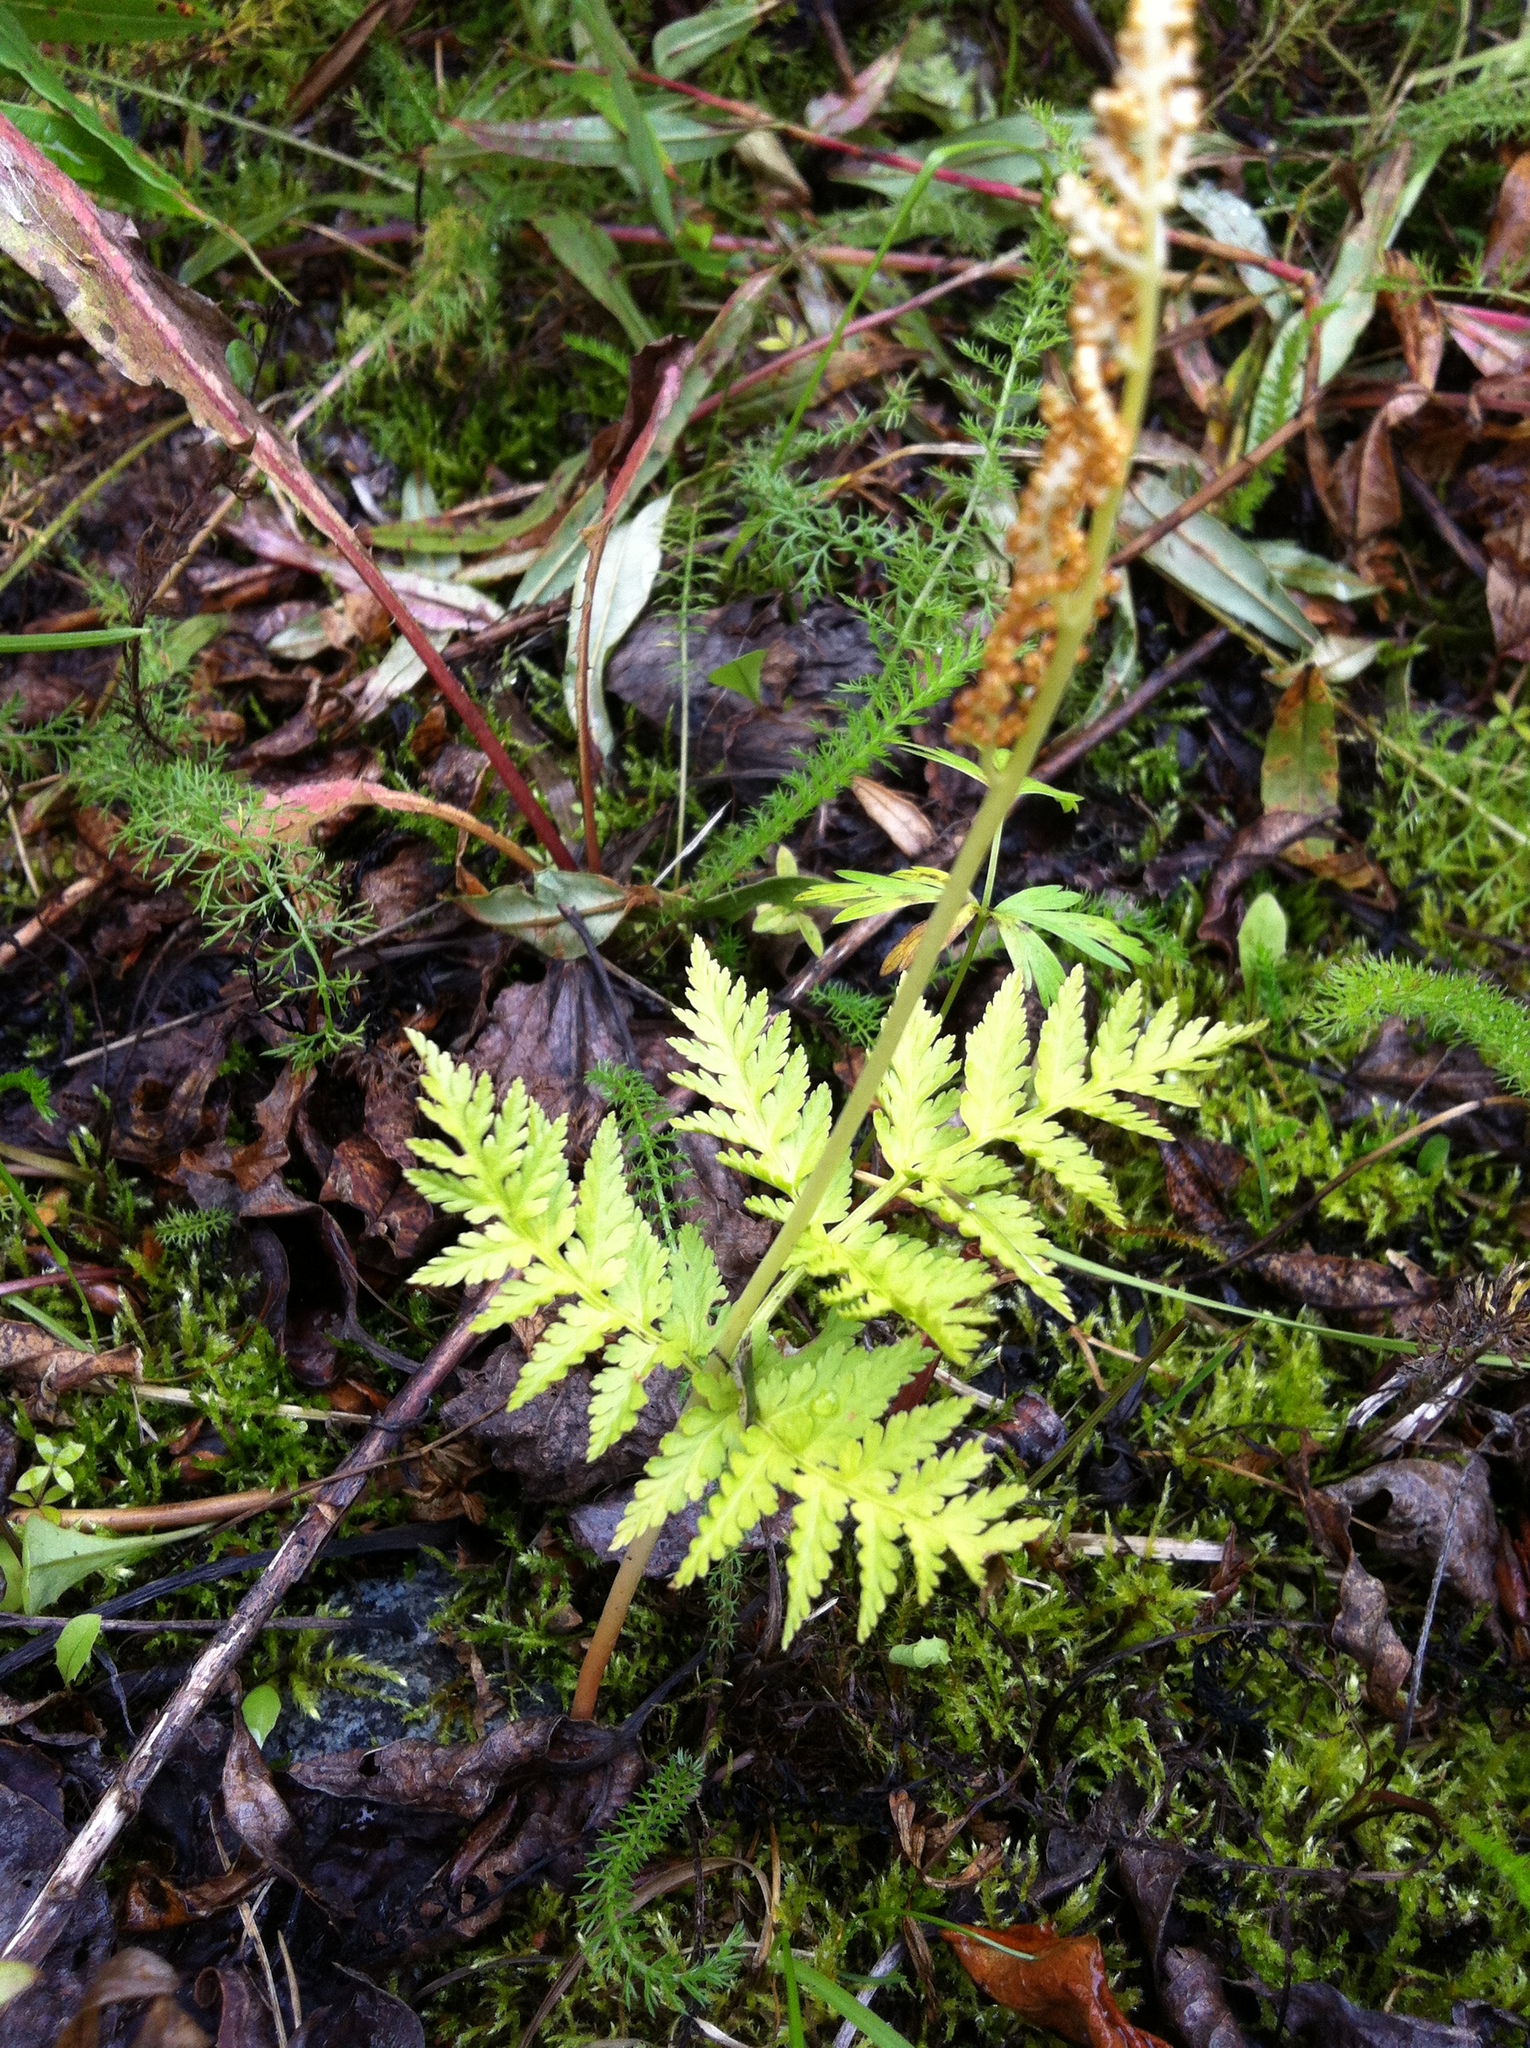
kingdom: Plantae
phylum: Tracheophyta
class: Polypodiopsida
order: Ophioglossales
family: Ophioglossaceae
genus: Botrypus
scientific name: Botrypus virginianus
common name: Common grapefern
